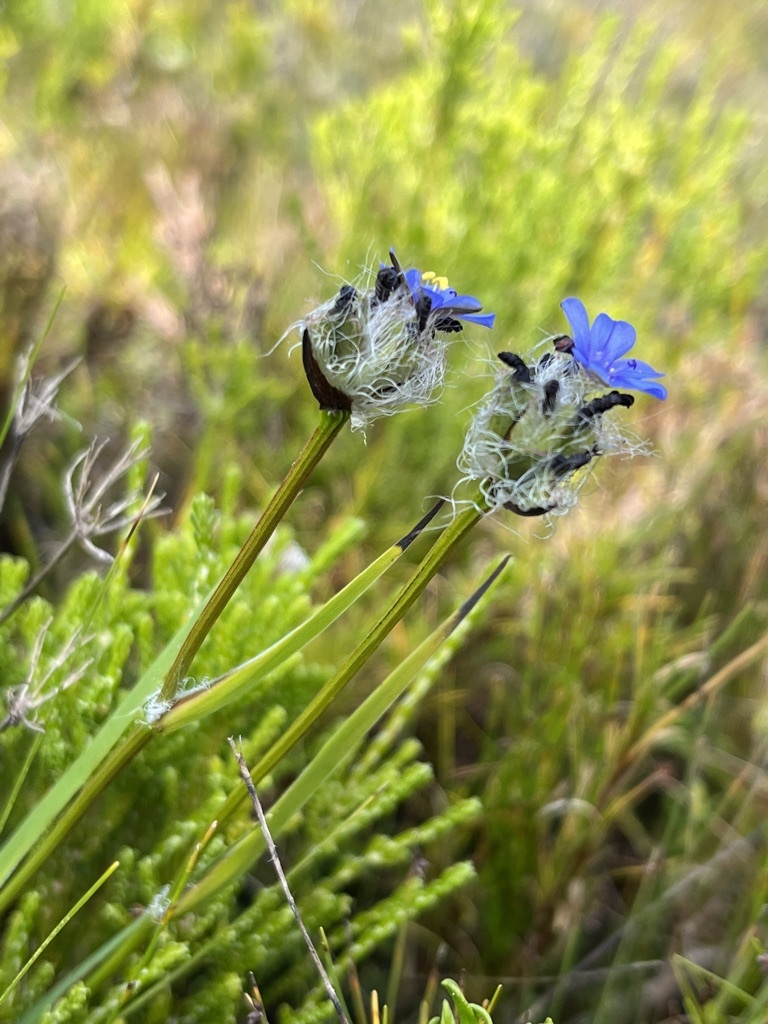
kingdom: Plantae
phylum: Tracheophyta
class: Liliopsida
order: Asparagales
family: Iridaceae
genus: Aristea
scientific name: Aristea africana
